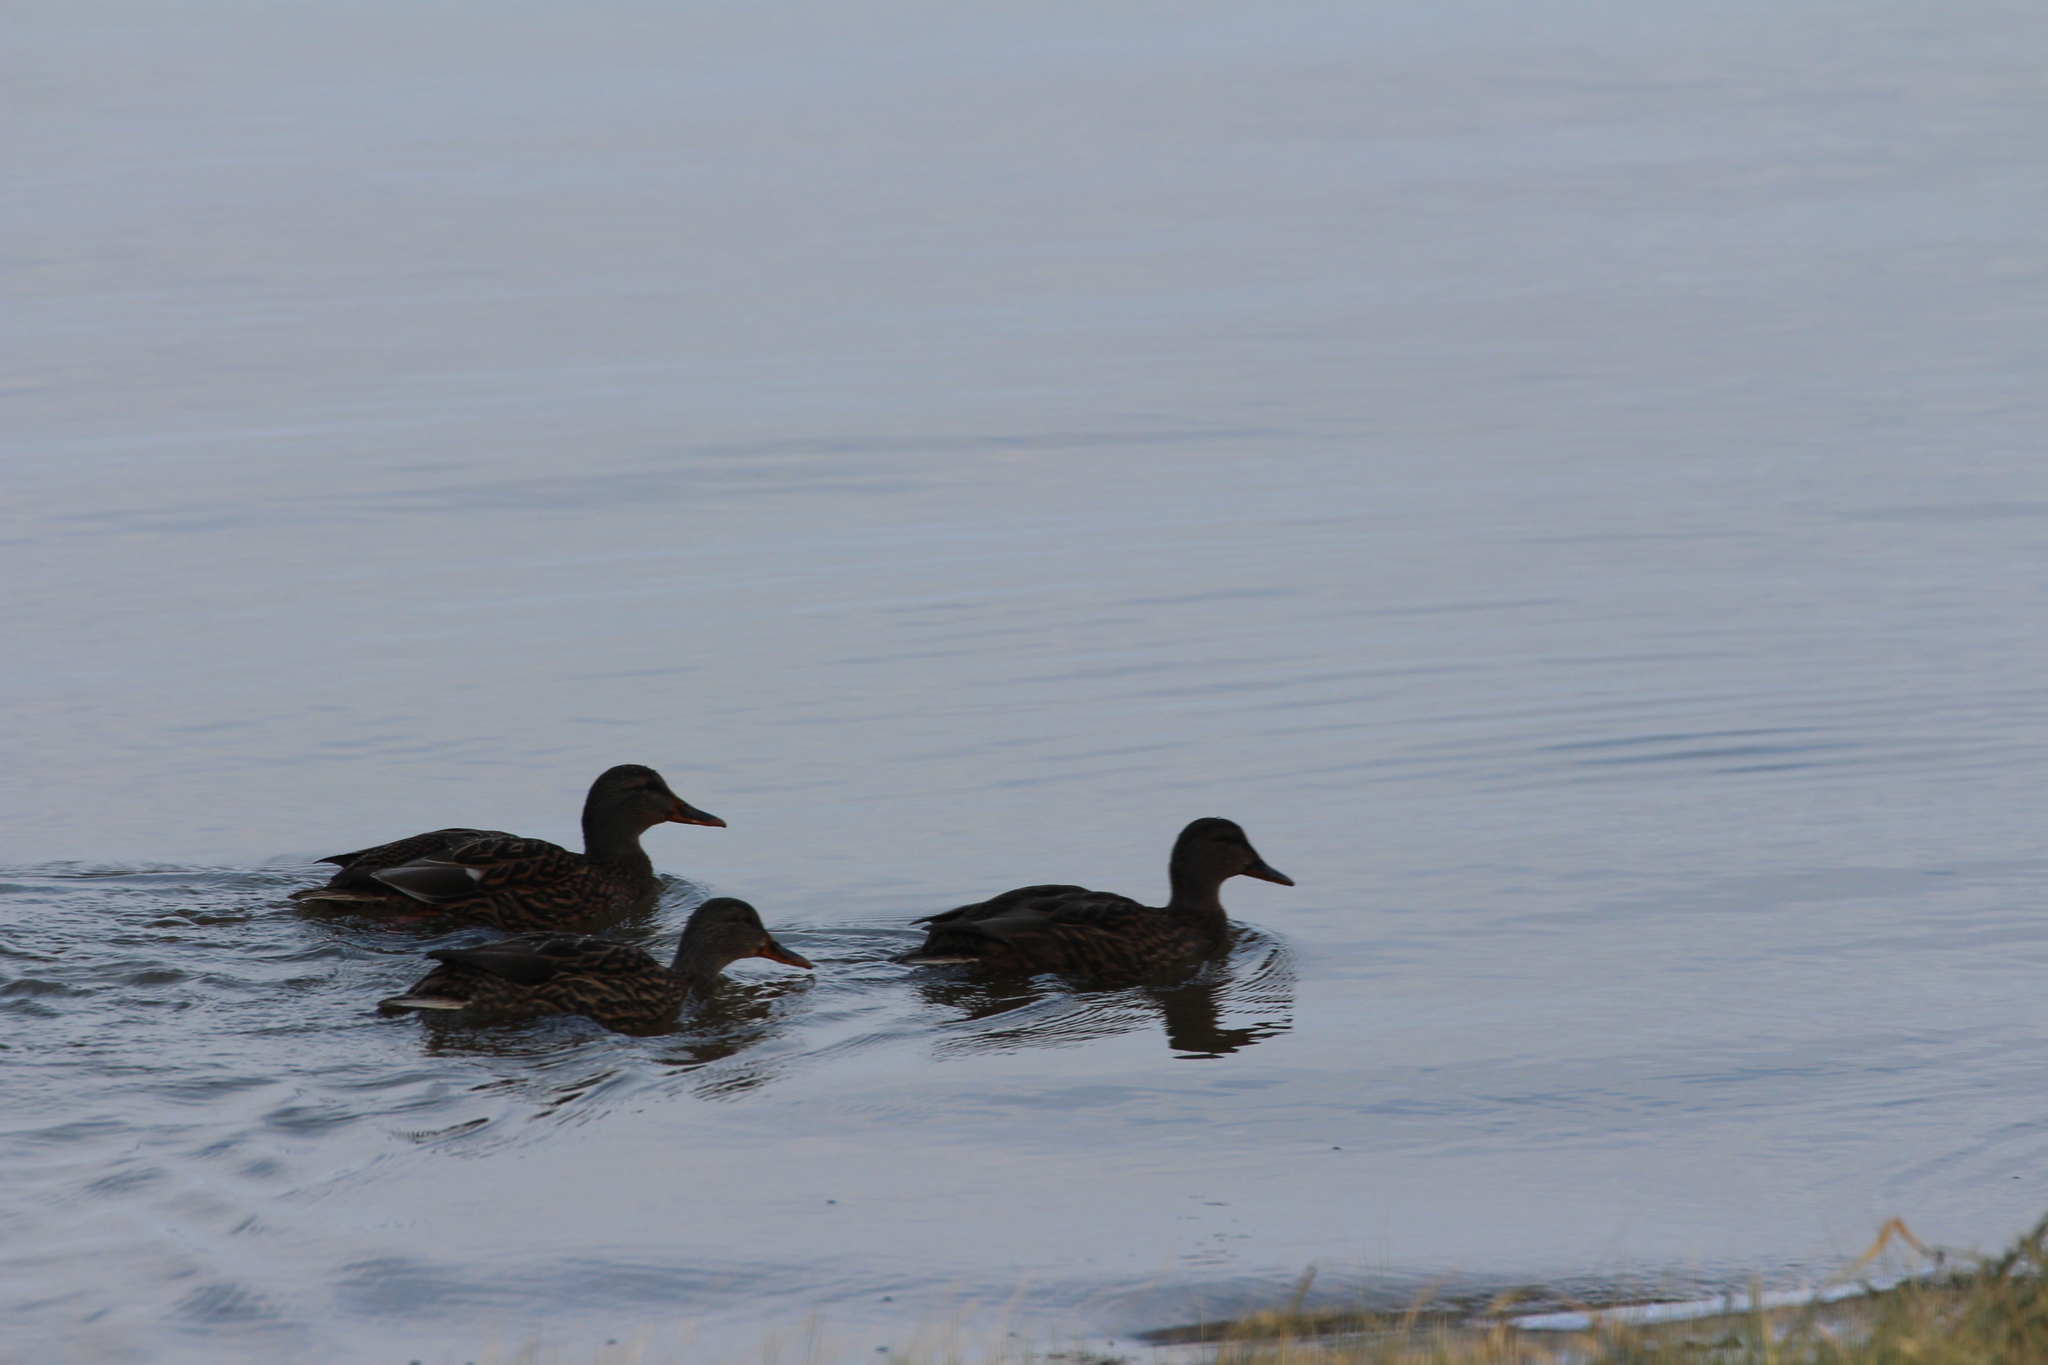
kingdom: Animalia
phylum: Chordata
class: Aves
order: Anseriformes
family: Anatidae
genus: Anas
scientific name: Anas platyrhynchos
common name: Mallard
